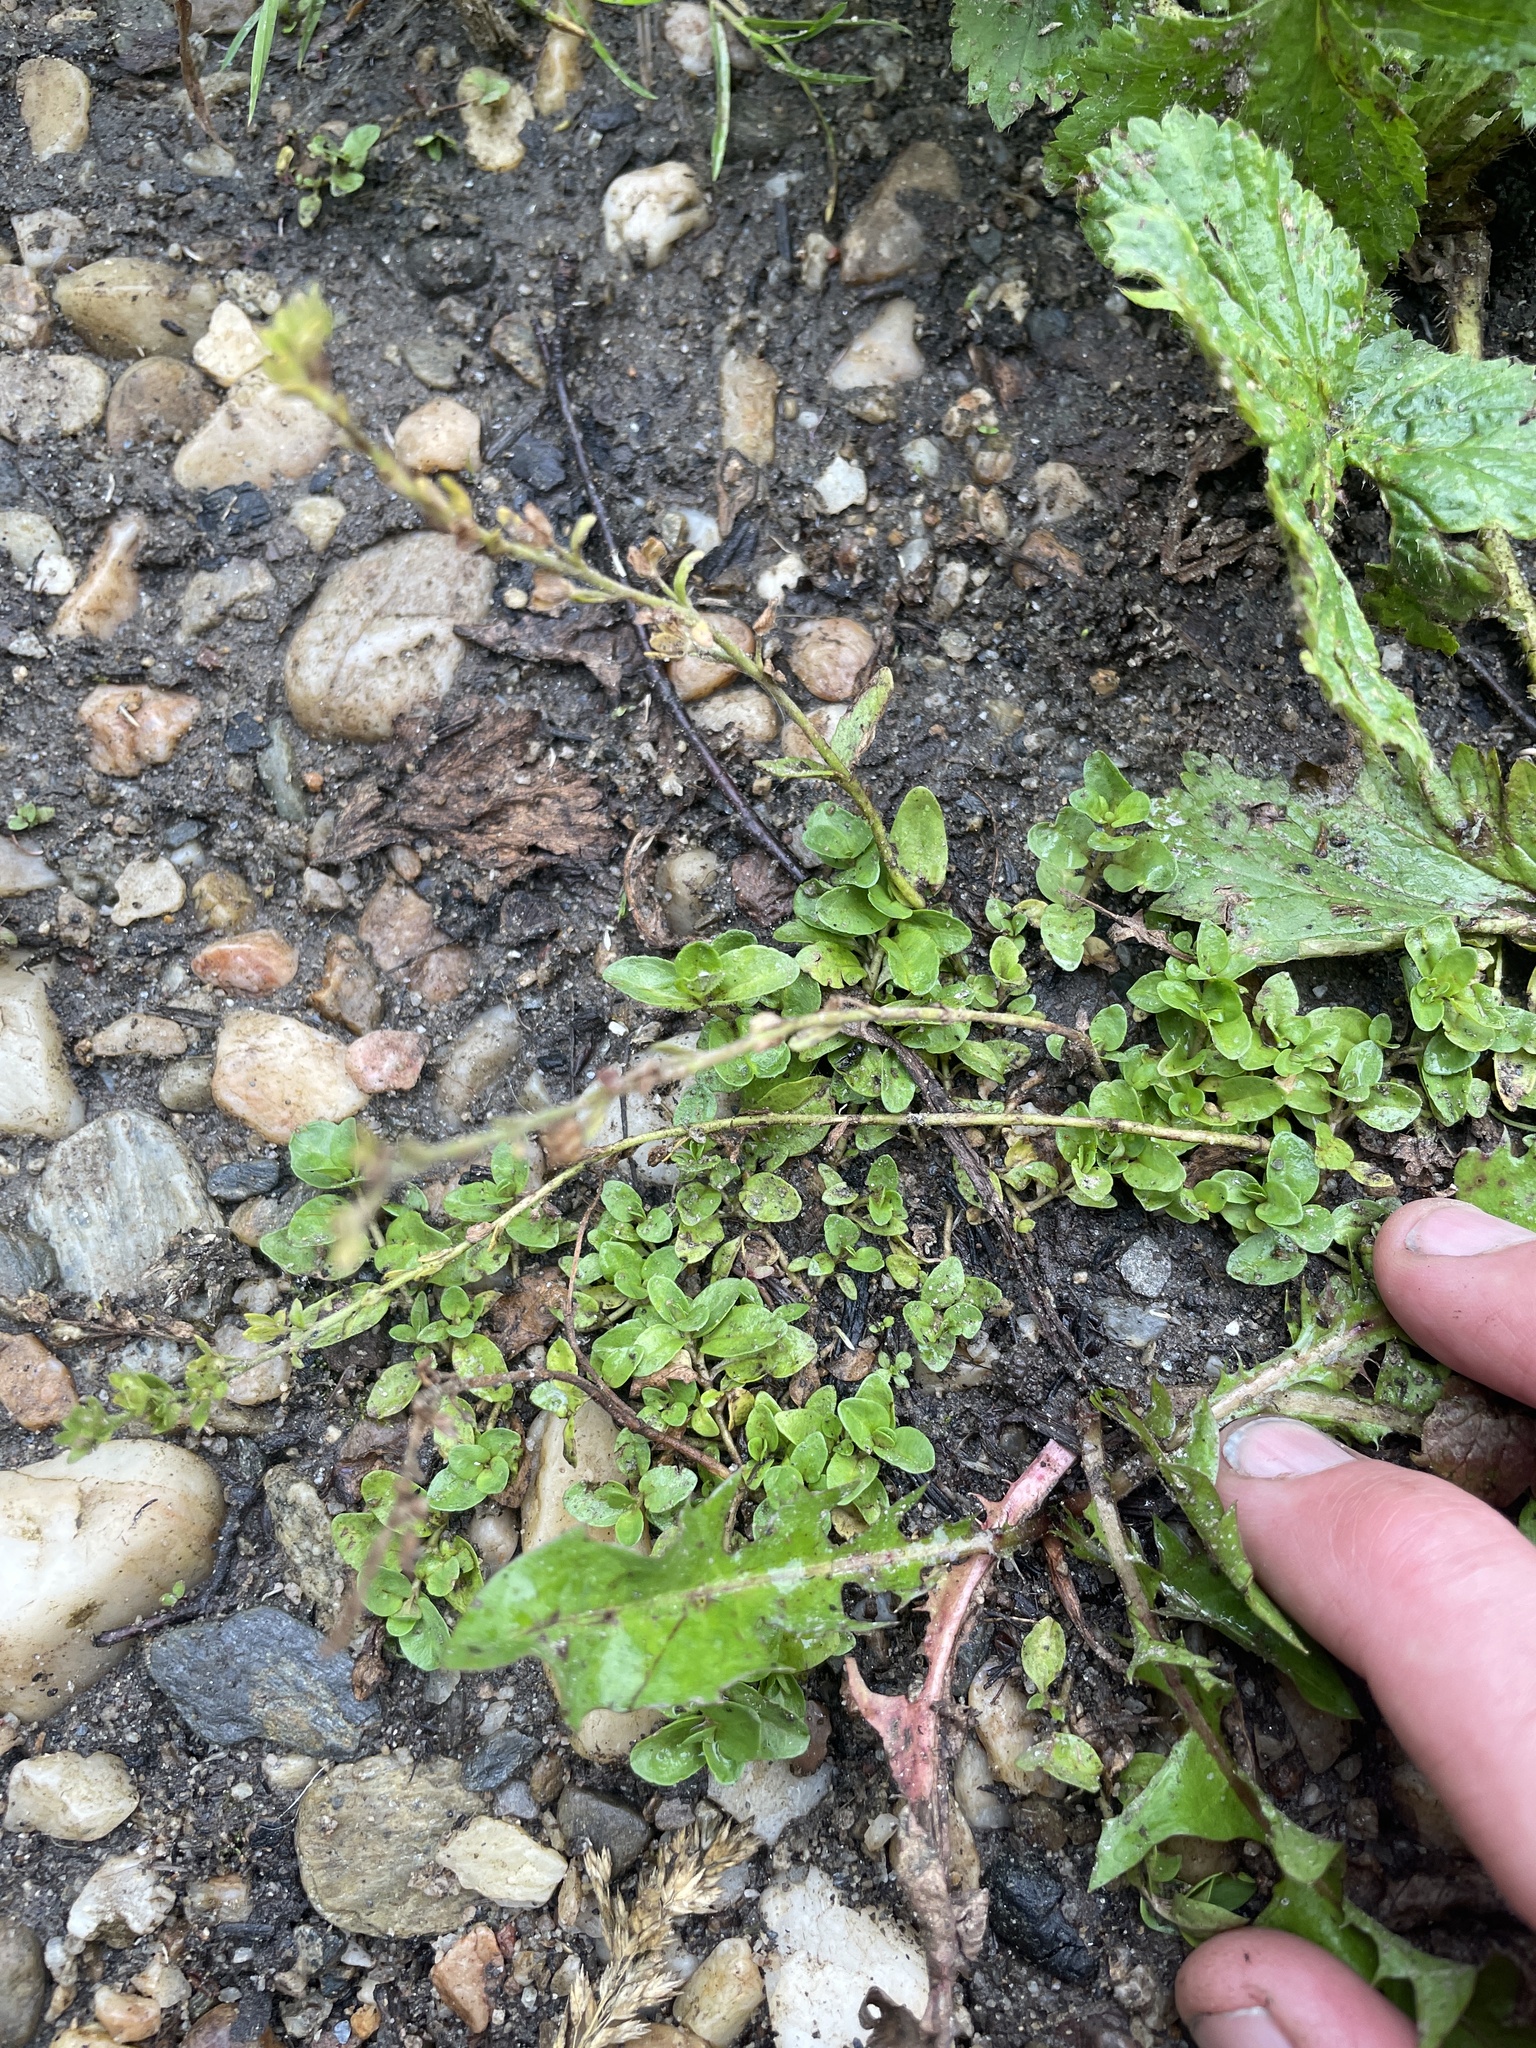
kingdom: Plantae
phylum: Tracheophyta
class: Magnoliopsida
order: Lamiales
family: Plantaginaceae
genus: Veronica
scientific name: Veronica serpyllifolia
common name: Thyme-leaved speedwell
